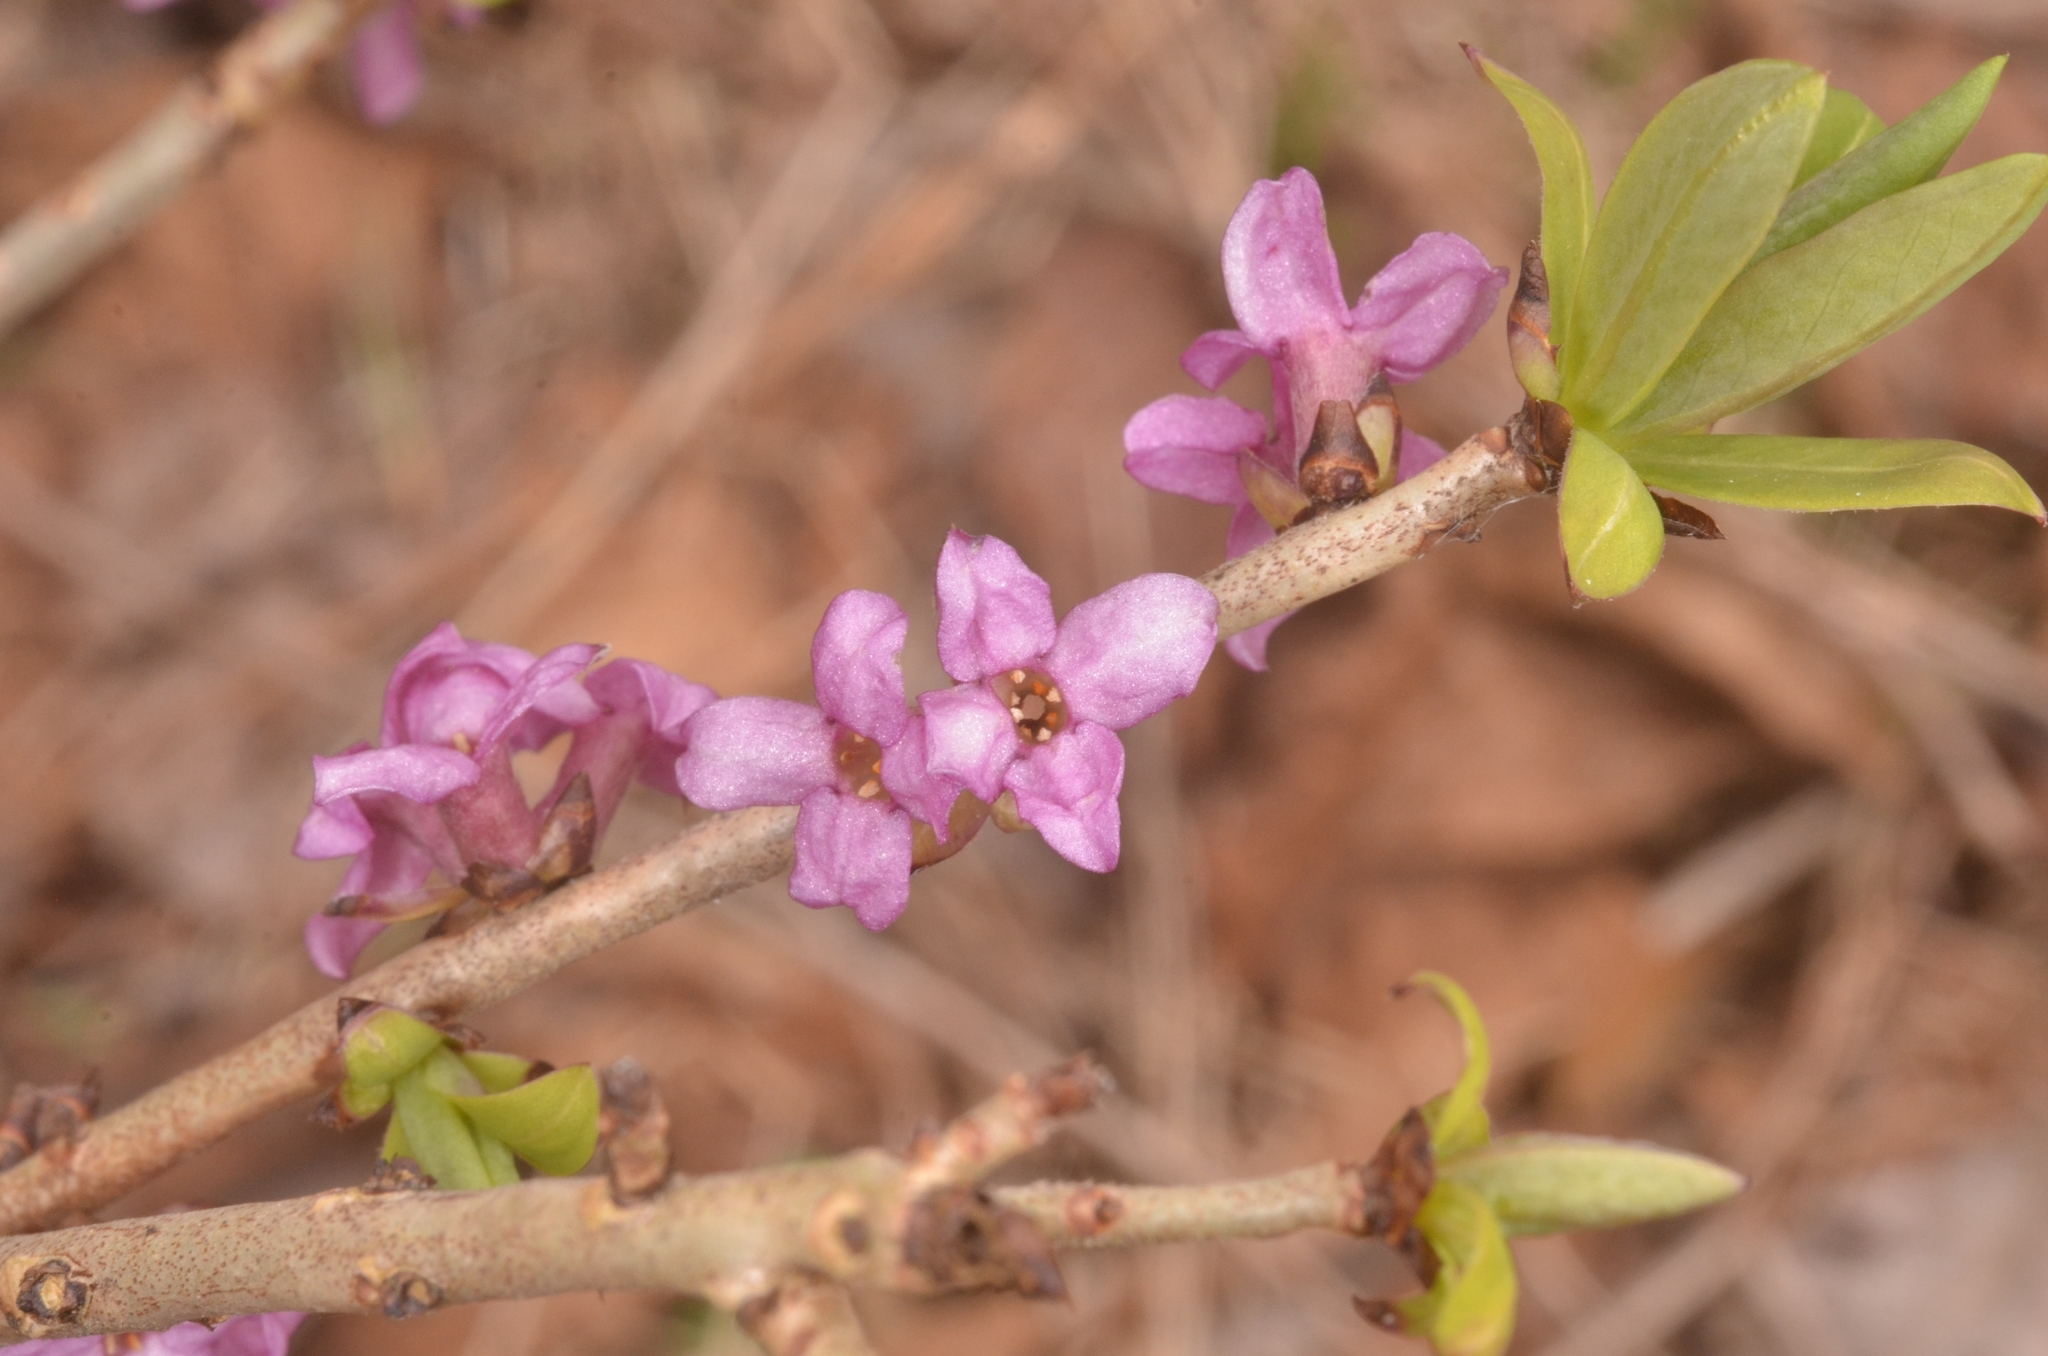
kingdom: Plantae
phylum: Tracheophyta
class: Magnoliopsida
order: Malvales
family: Thymelaeaceae
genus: Daphne
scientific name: Daphne mezereum
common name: Mezereon
